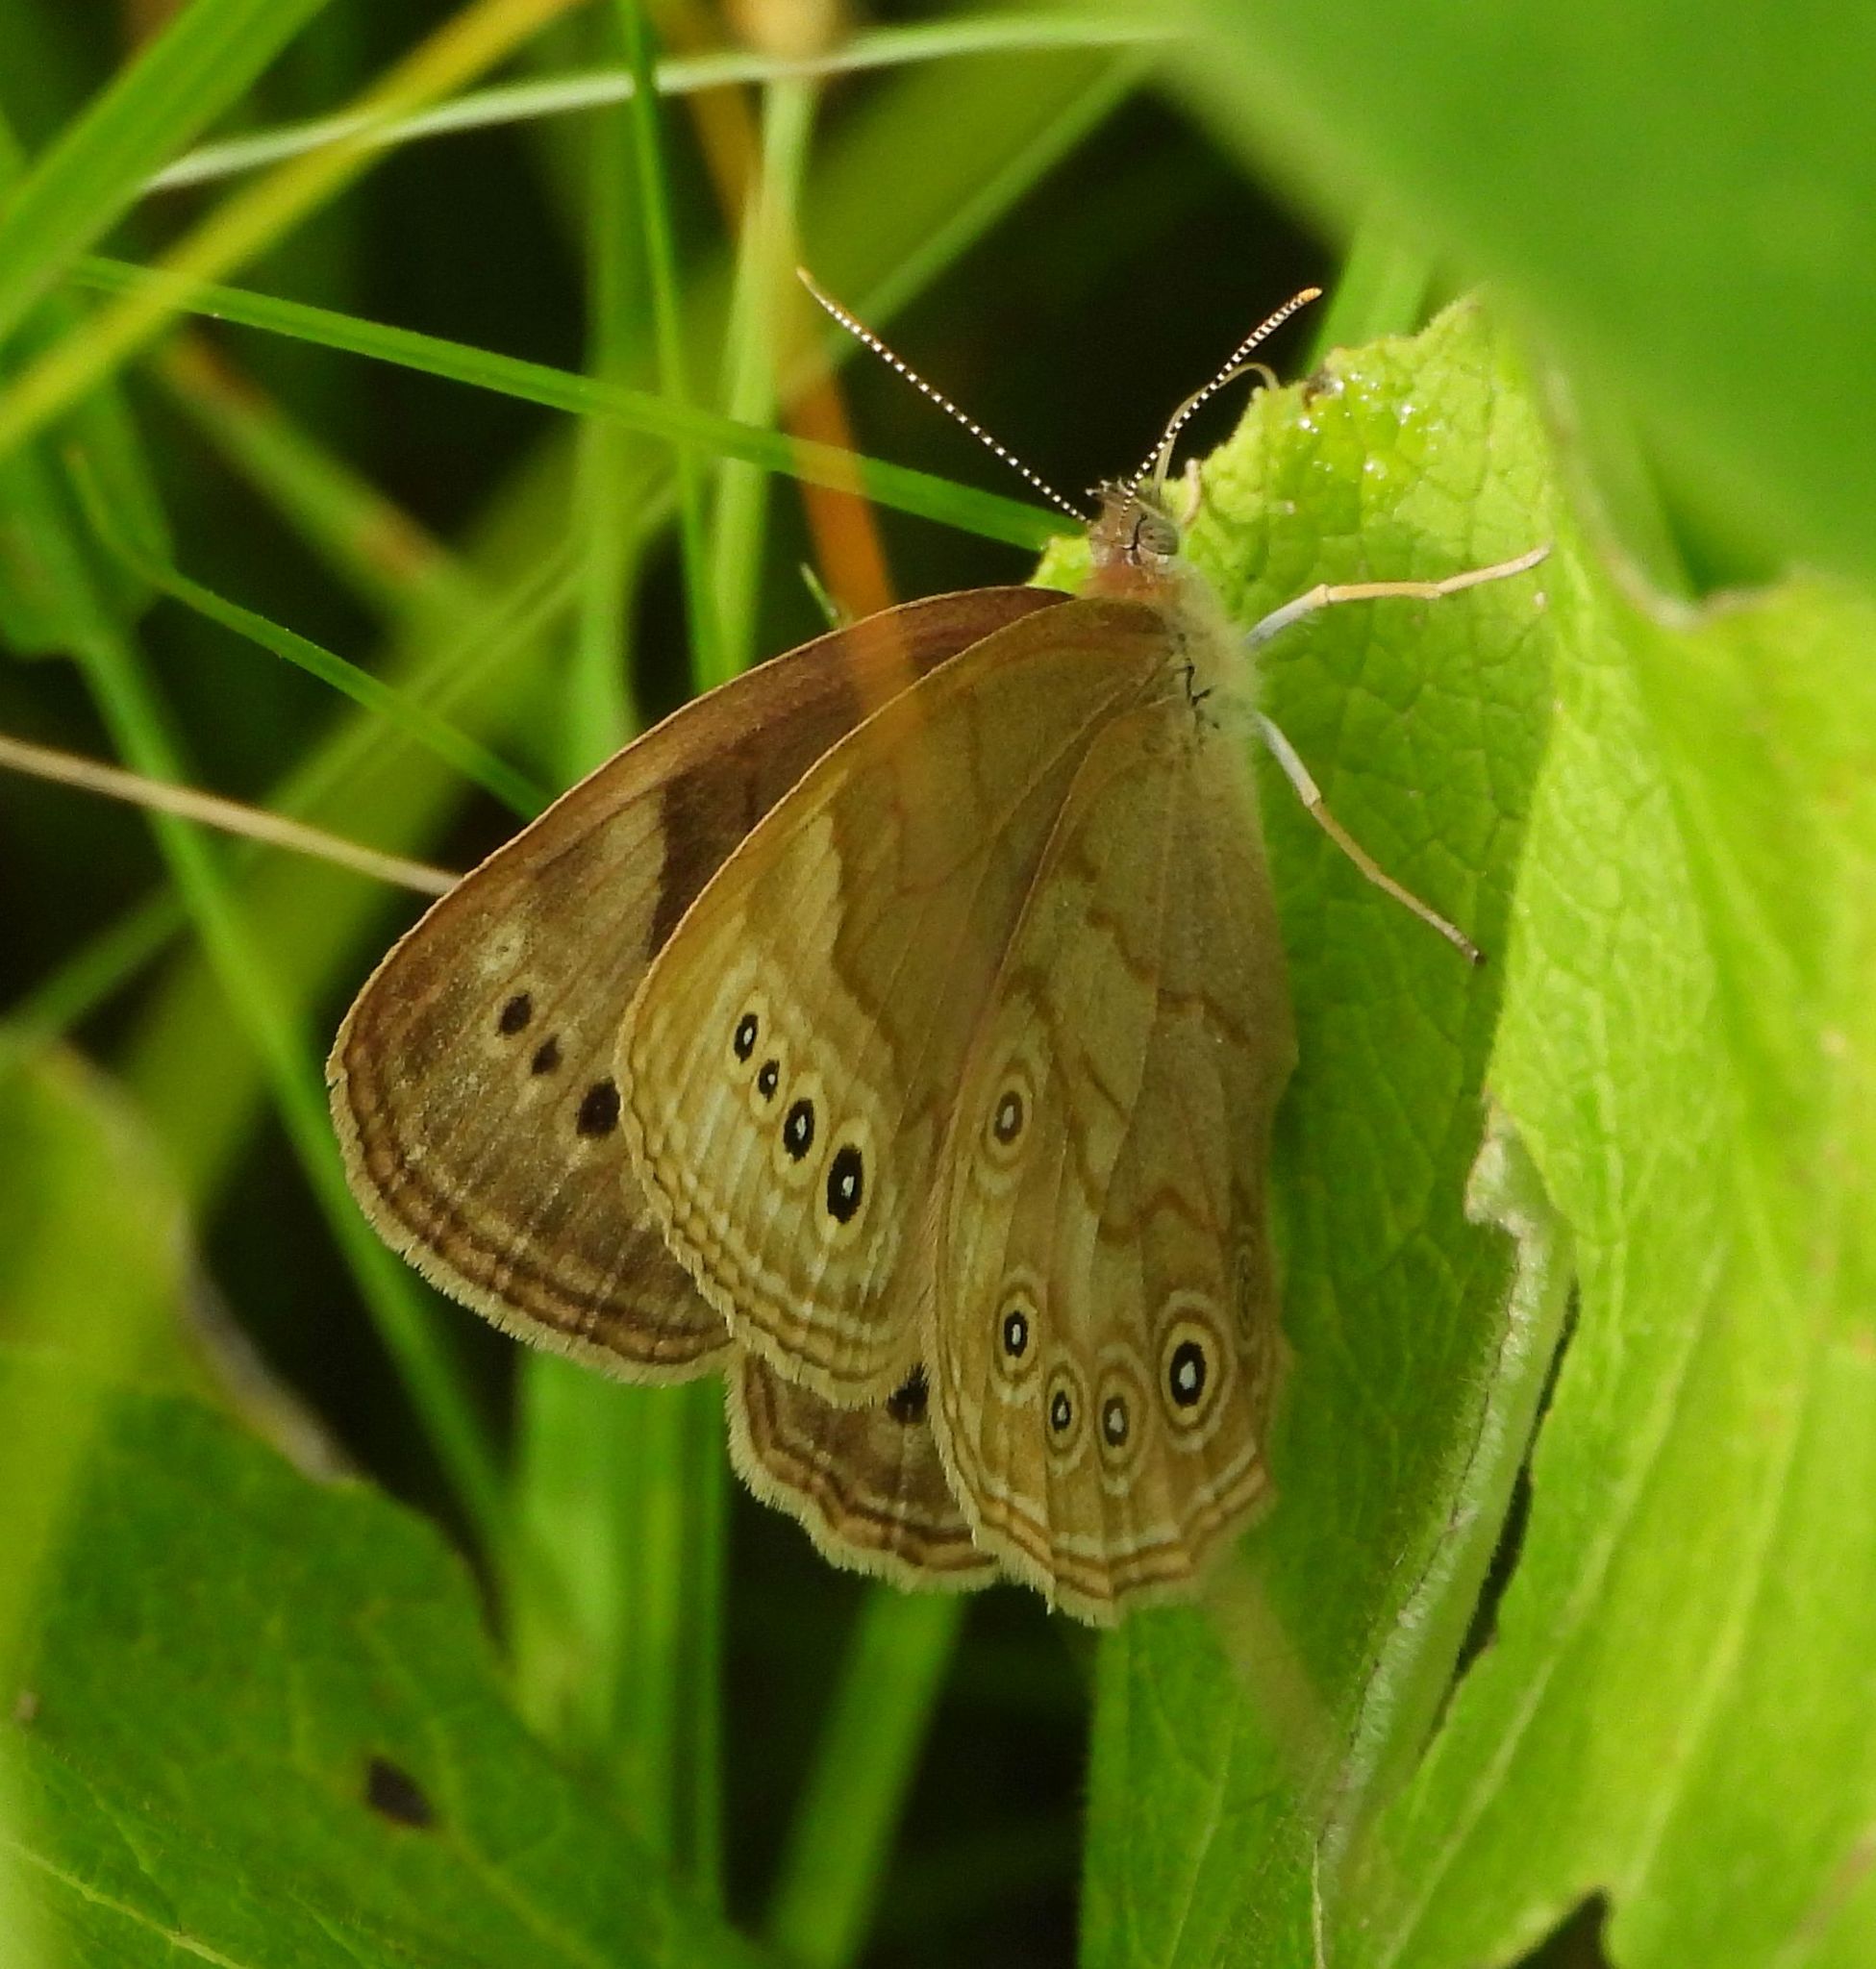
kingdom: Animalia
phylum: Arthropoda
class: Insecta
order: Lepidoptera
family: Nymphalidae
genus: Lethe
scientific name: Lethe eurydice
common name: Eyed brown
